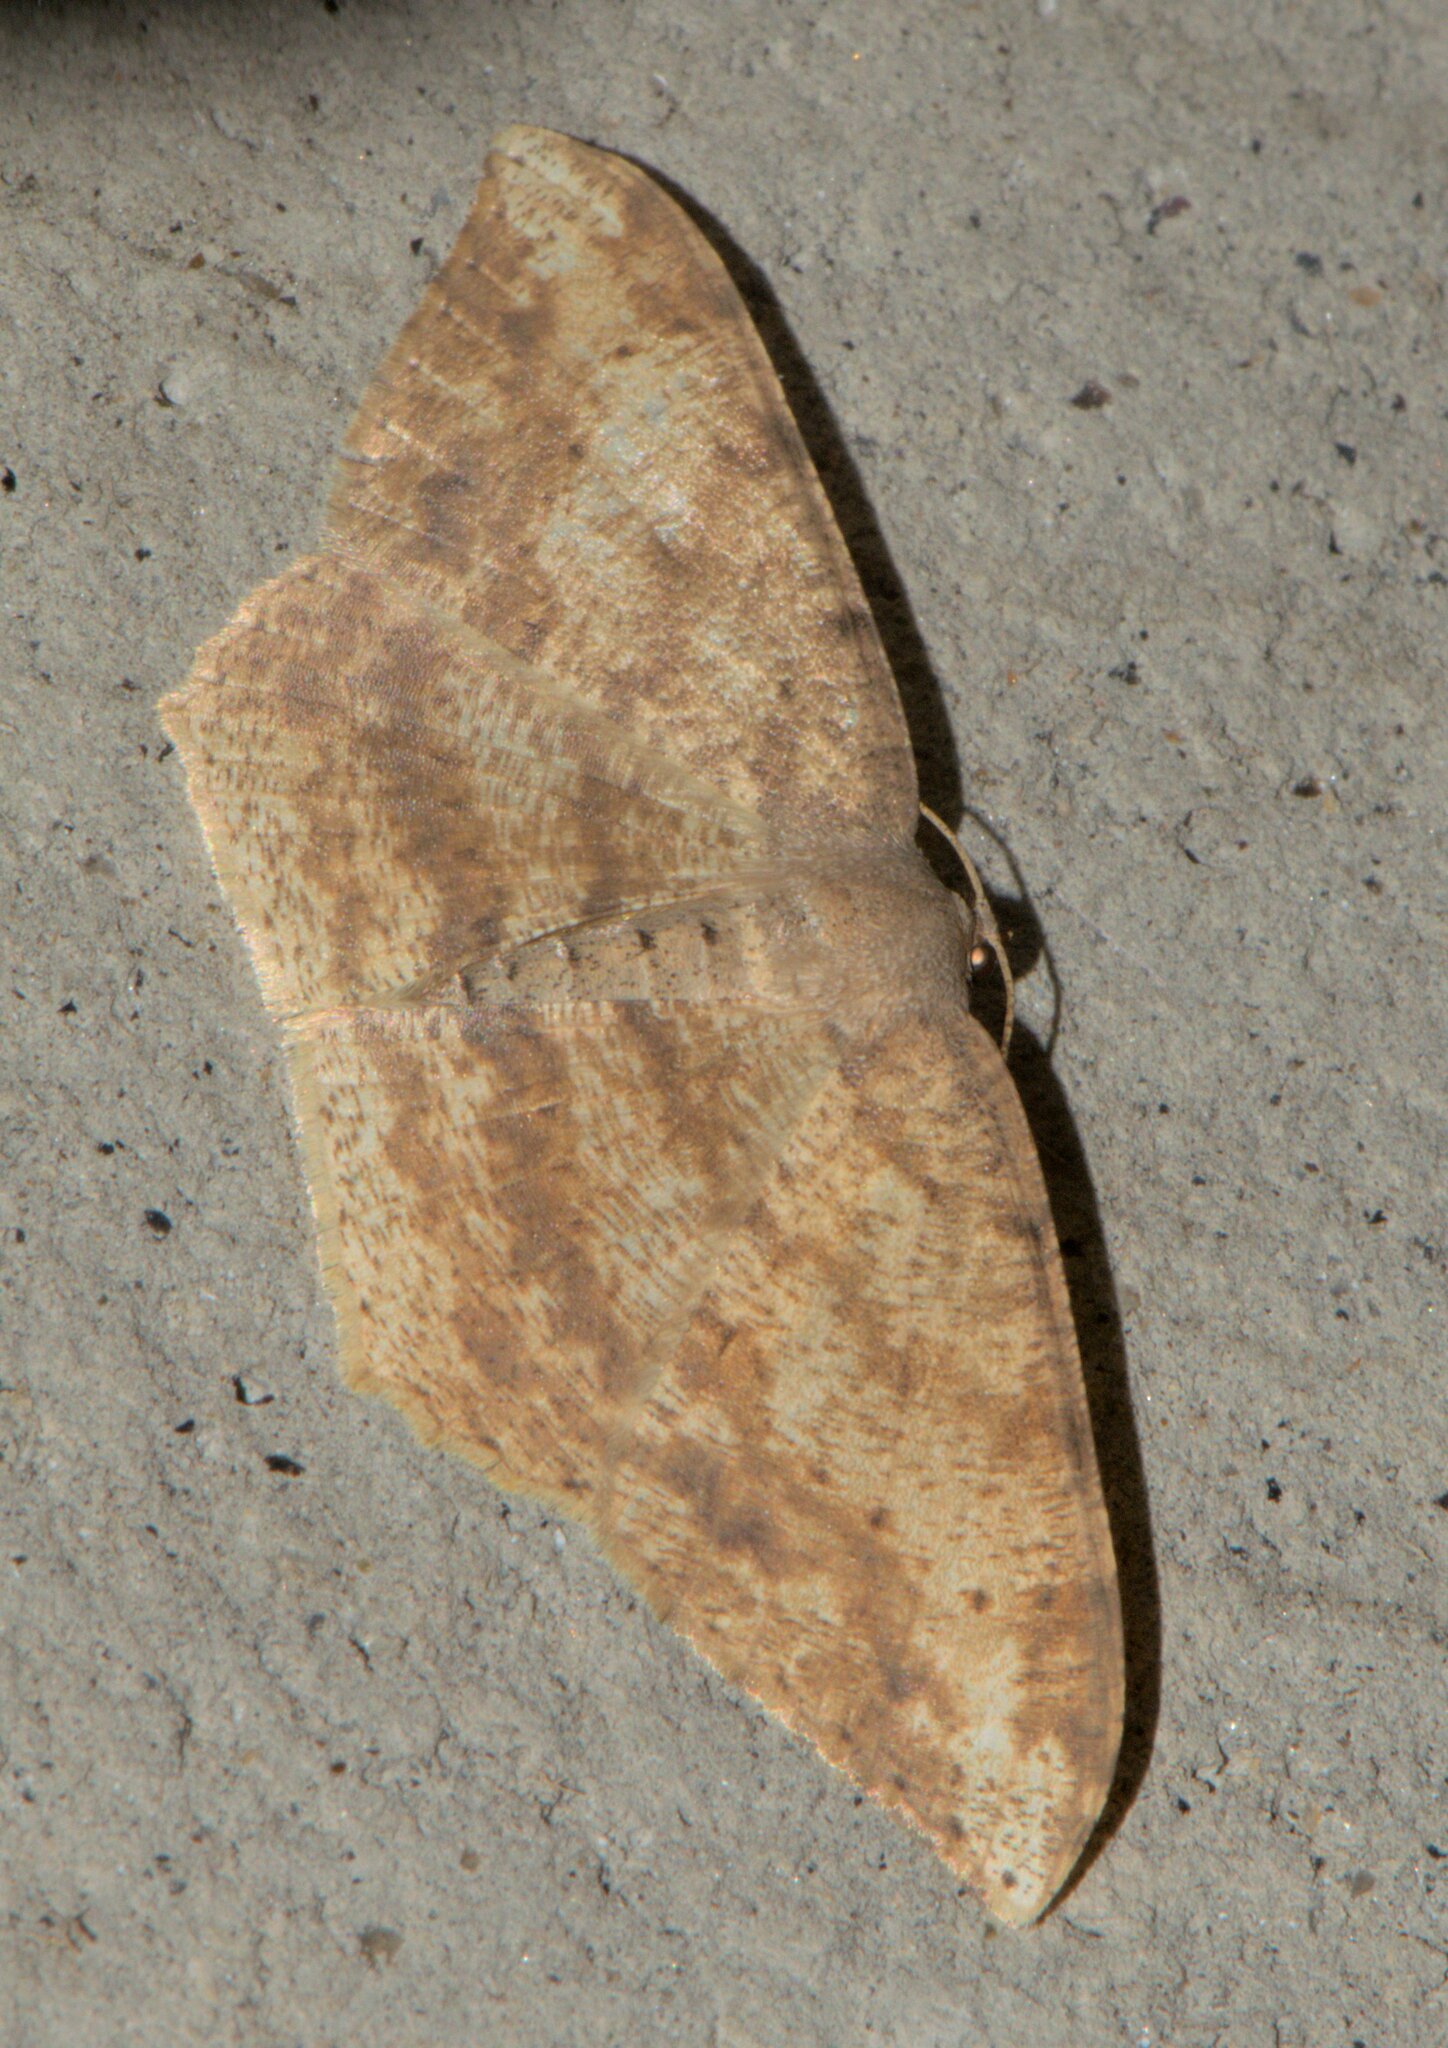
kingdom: Animalia
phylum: Arthropoda
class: Insecta
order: Lepidoptera
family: Geometridae
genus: Luxiaria
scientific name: Luxiaria amasa
